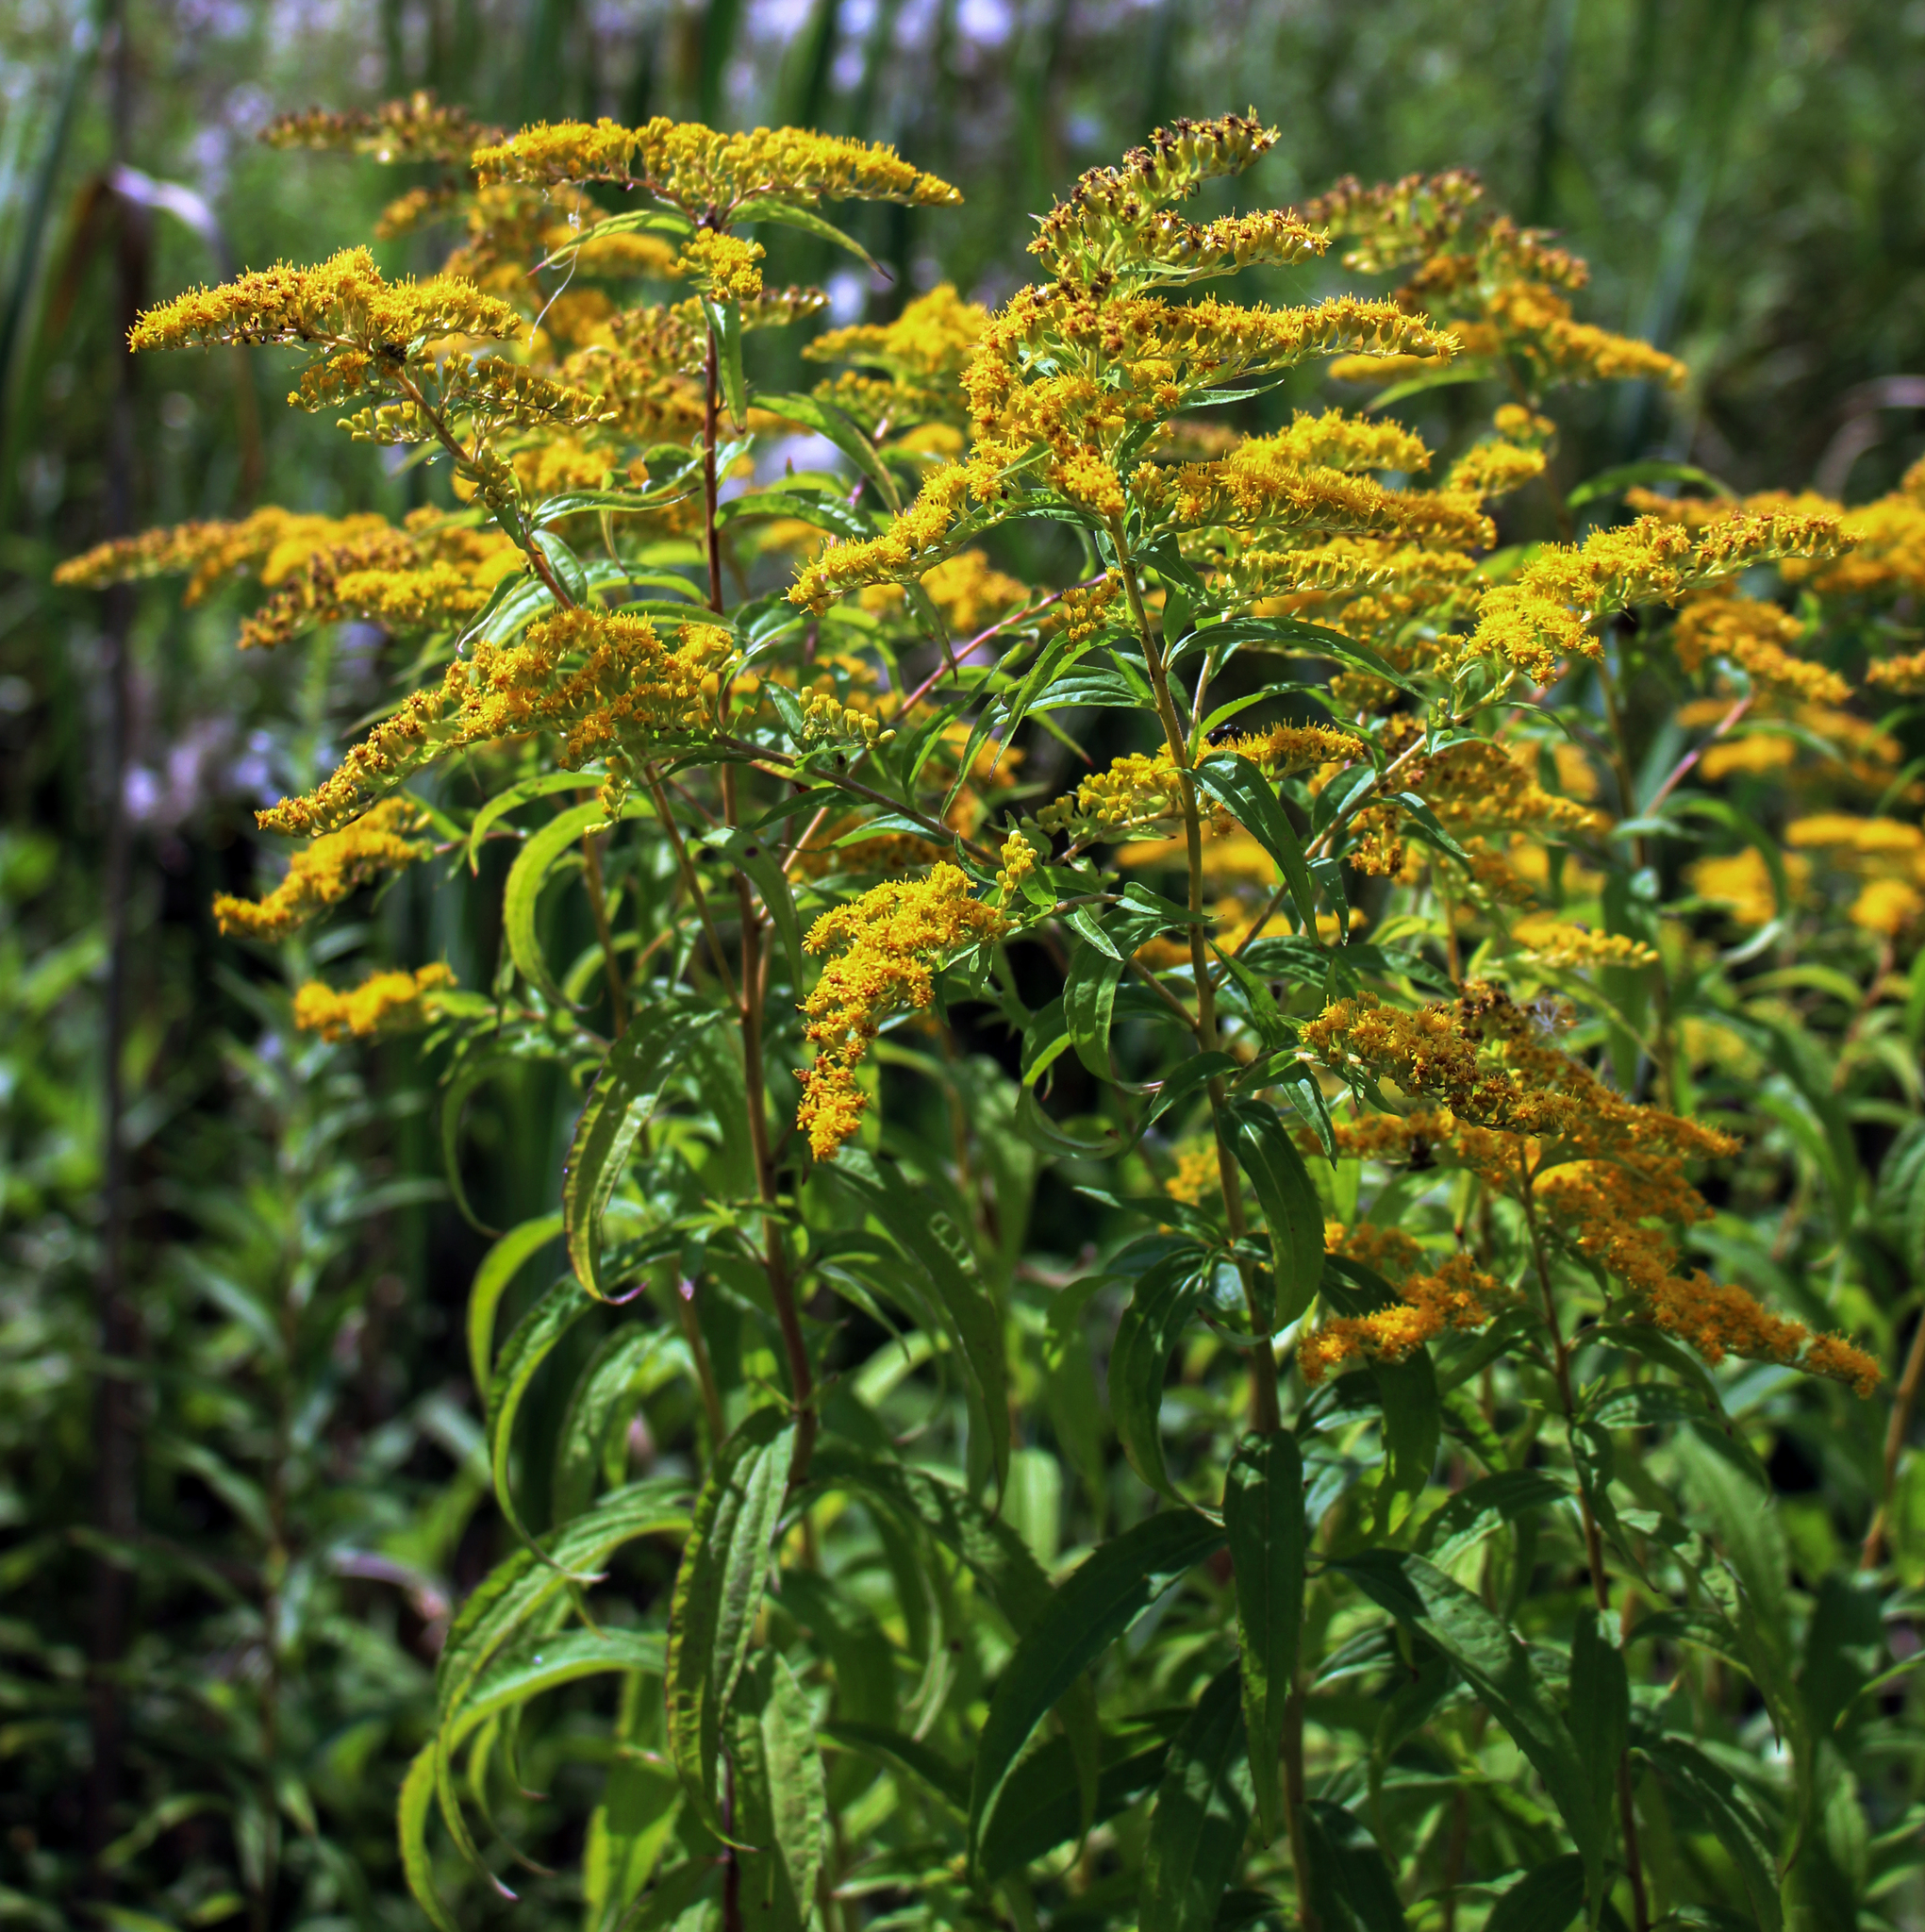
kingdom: Plantae
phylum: Tracheophyta
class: Magnoliopsida
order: Asterales
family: Asteraceae
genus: Solidago
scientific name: Solidago juncea
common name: Early goldenrod
